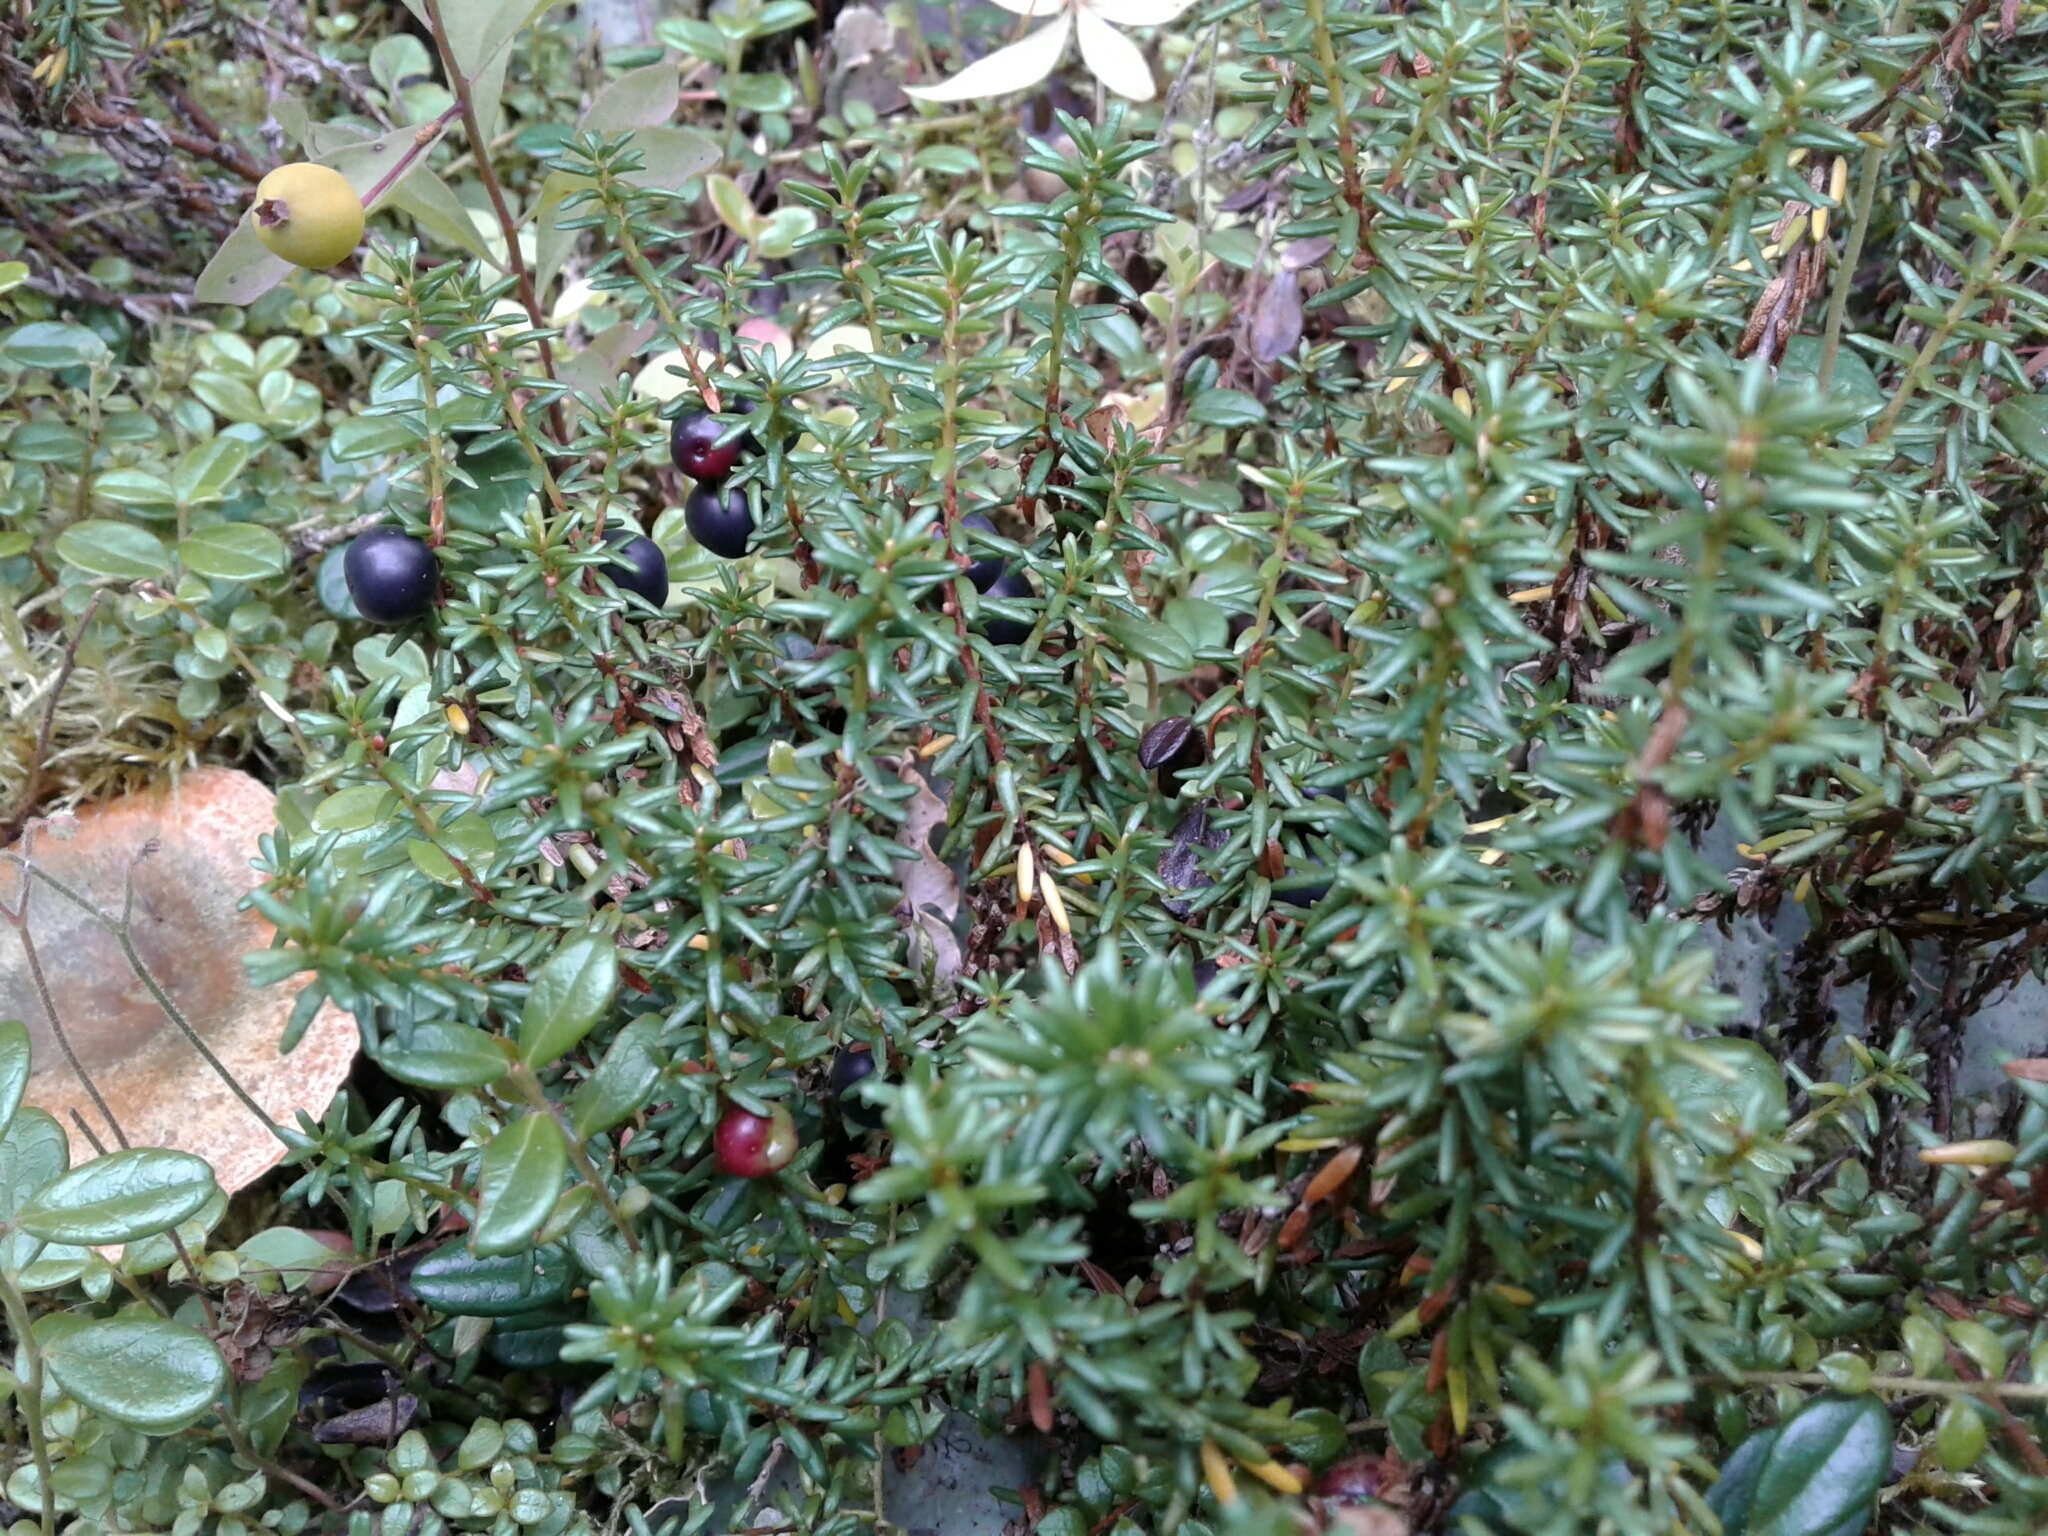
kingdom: Plantae
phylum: Tracheophyta
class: Magnoliopsida
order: Ericales
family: Ericaceae
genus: Empetrum
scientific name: Empetrum nigrum
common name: Black crowberry
